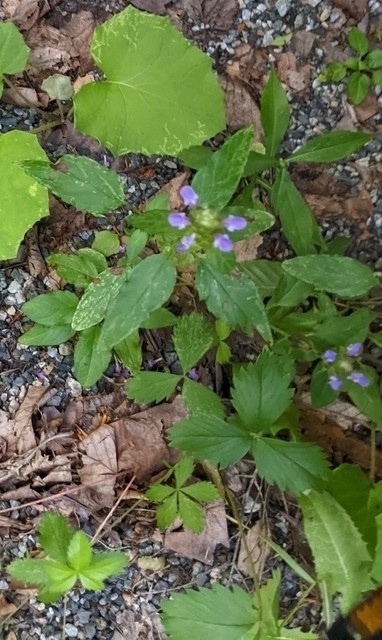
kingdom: Plantae
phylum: Tracheophyta
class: Magnoliopsida
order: Lamiales
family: Lamiaceae
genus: Prunella
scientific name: Prunella vulgaris
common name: Heal-all
